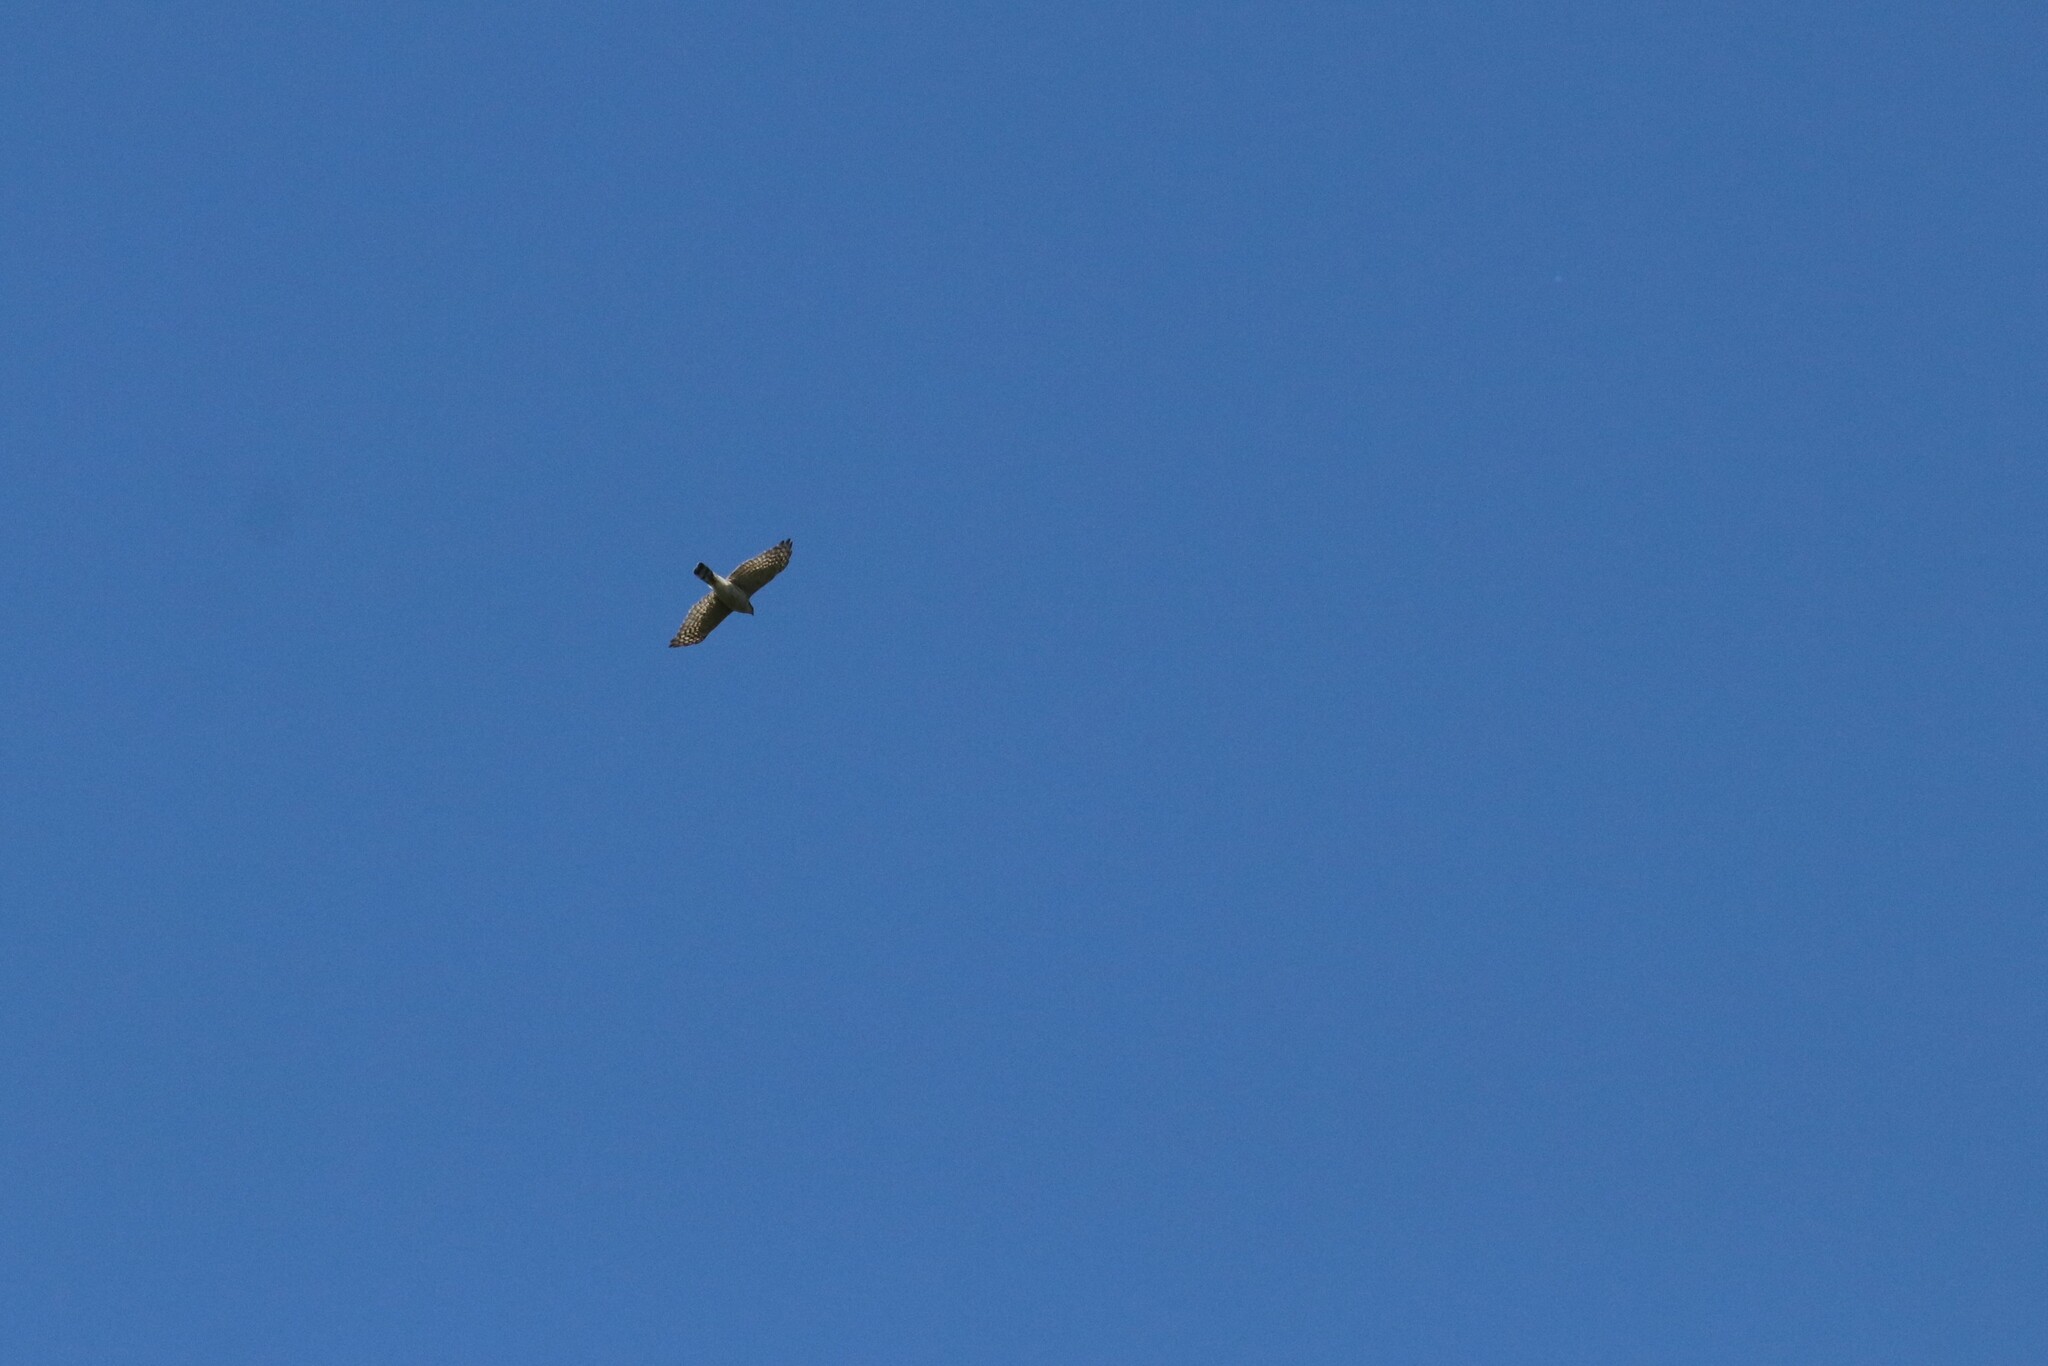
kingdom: Animalia
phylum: Chordata
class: Aves
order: Accipitriformes
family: Accipitridae
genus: Accipiter
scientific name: Accipiter nisus
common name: Eurasian sparrowhawk
